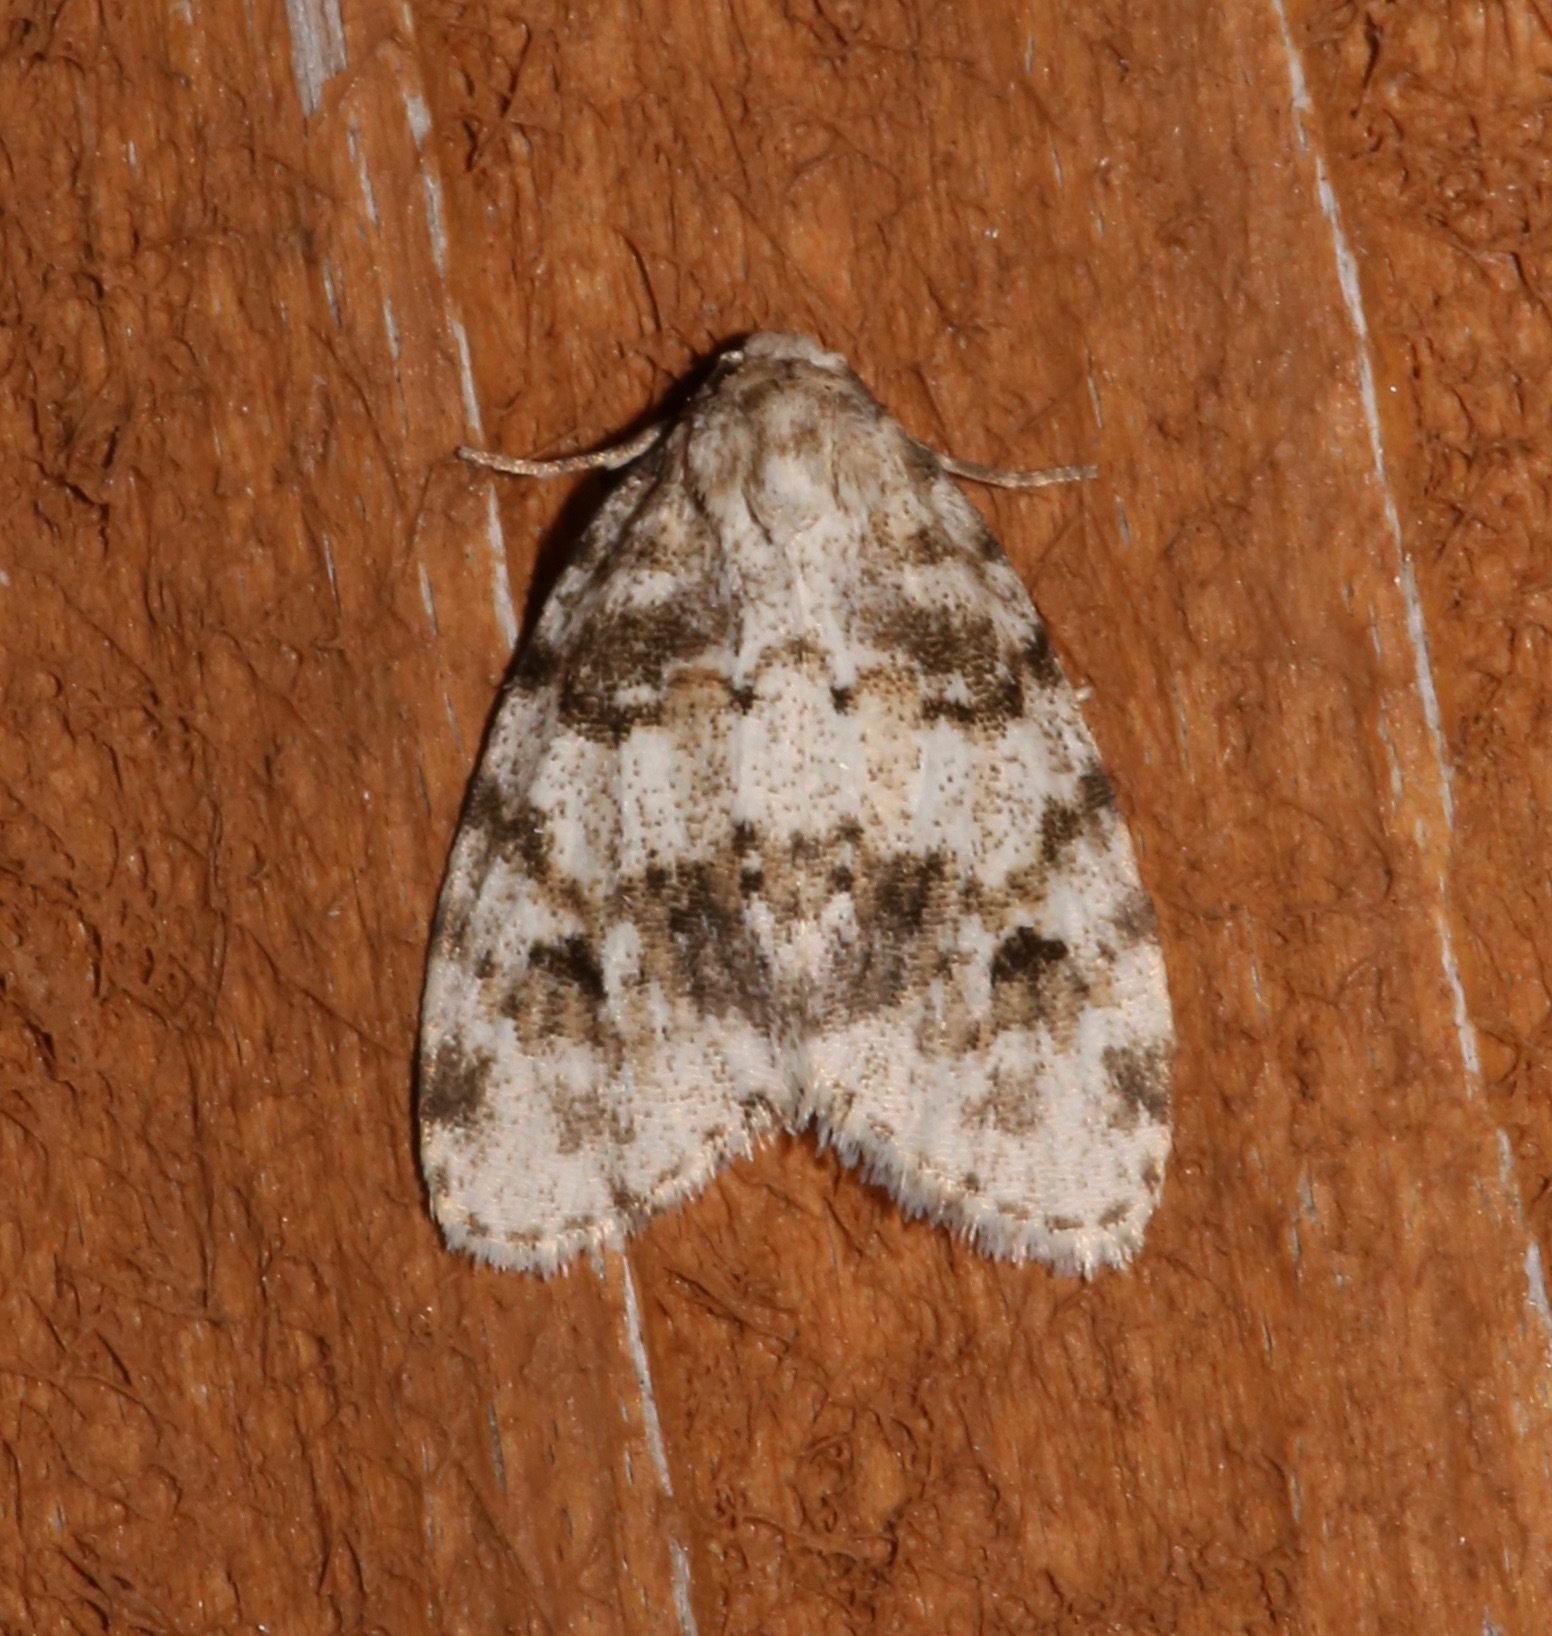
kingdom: Animalia
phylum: Arthropoda
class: Insecta
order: Lepidoptera
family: Erebidae
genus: Clemensia
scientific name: Clemensia ochreata
